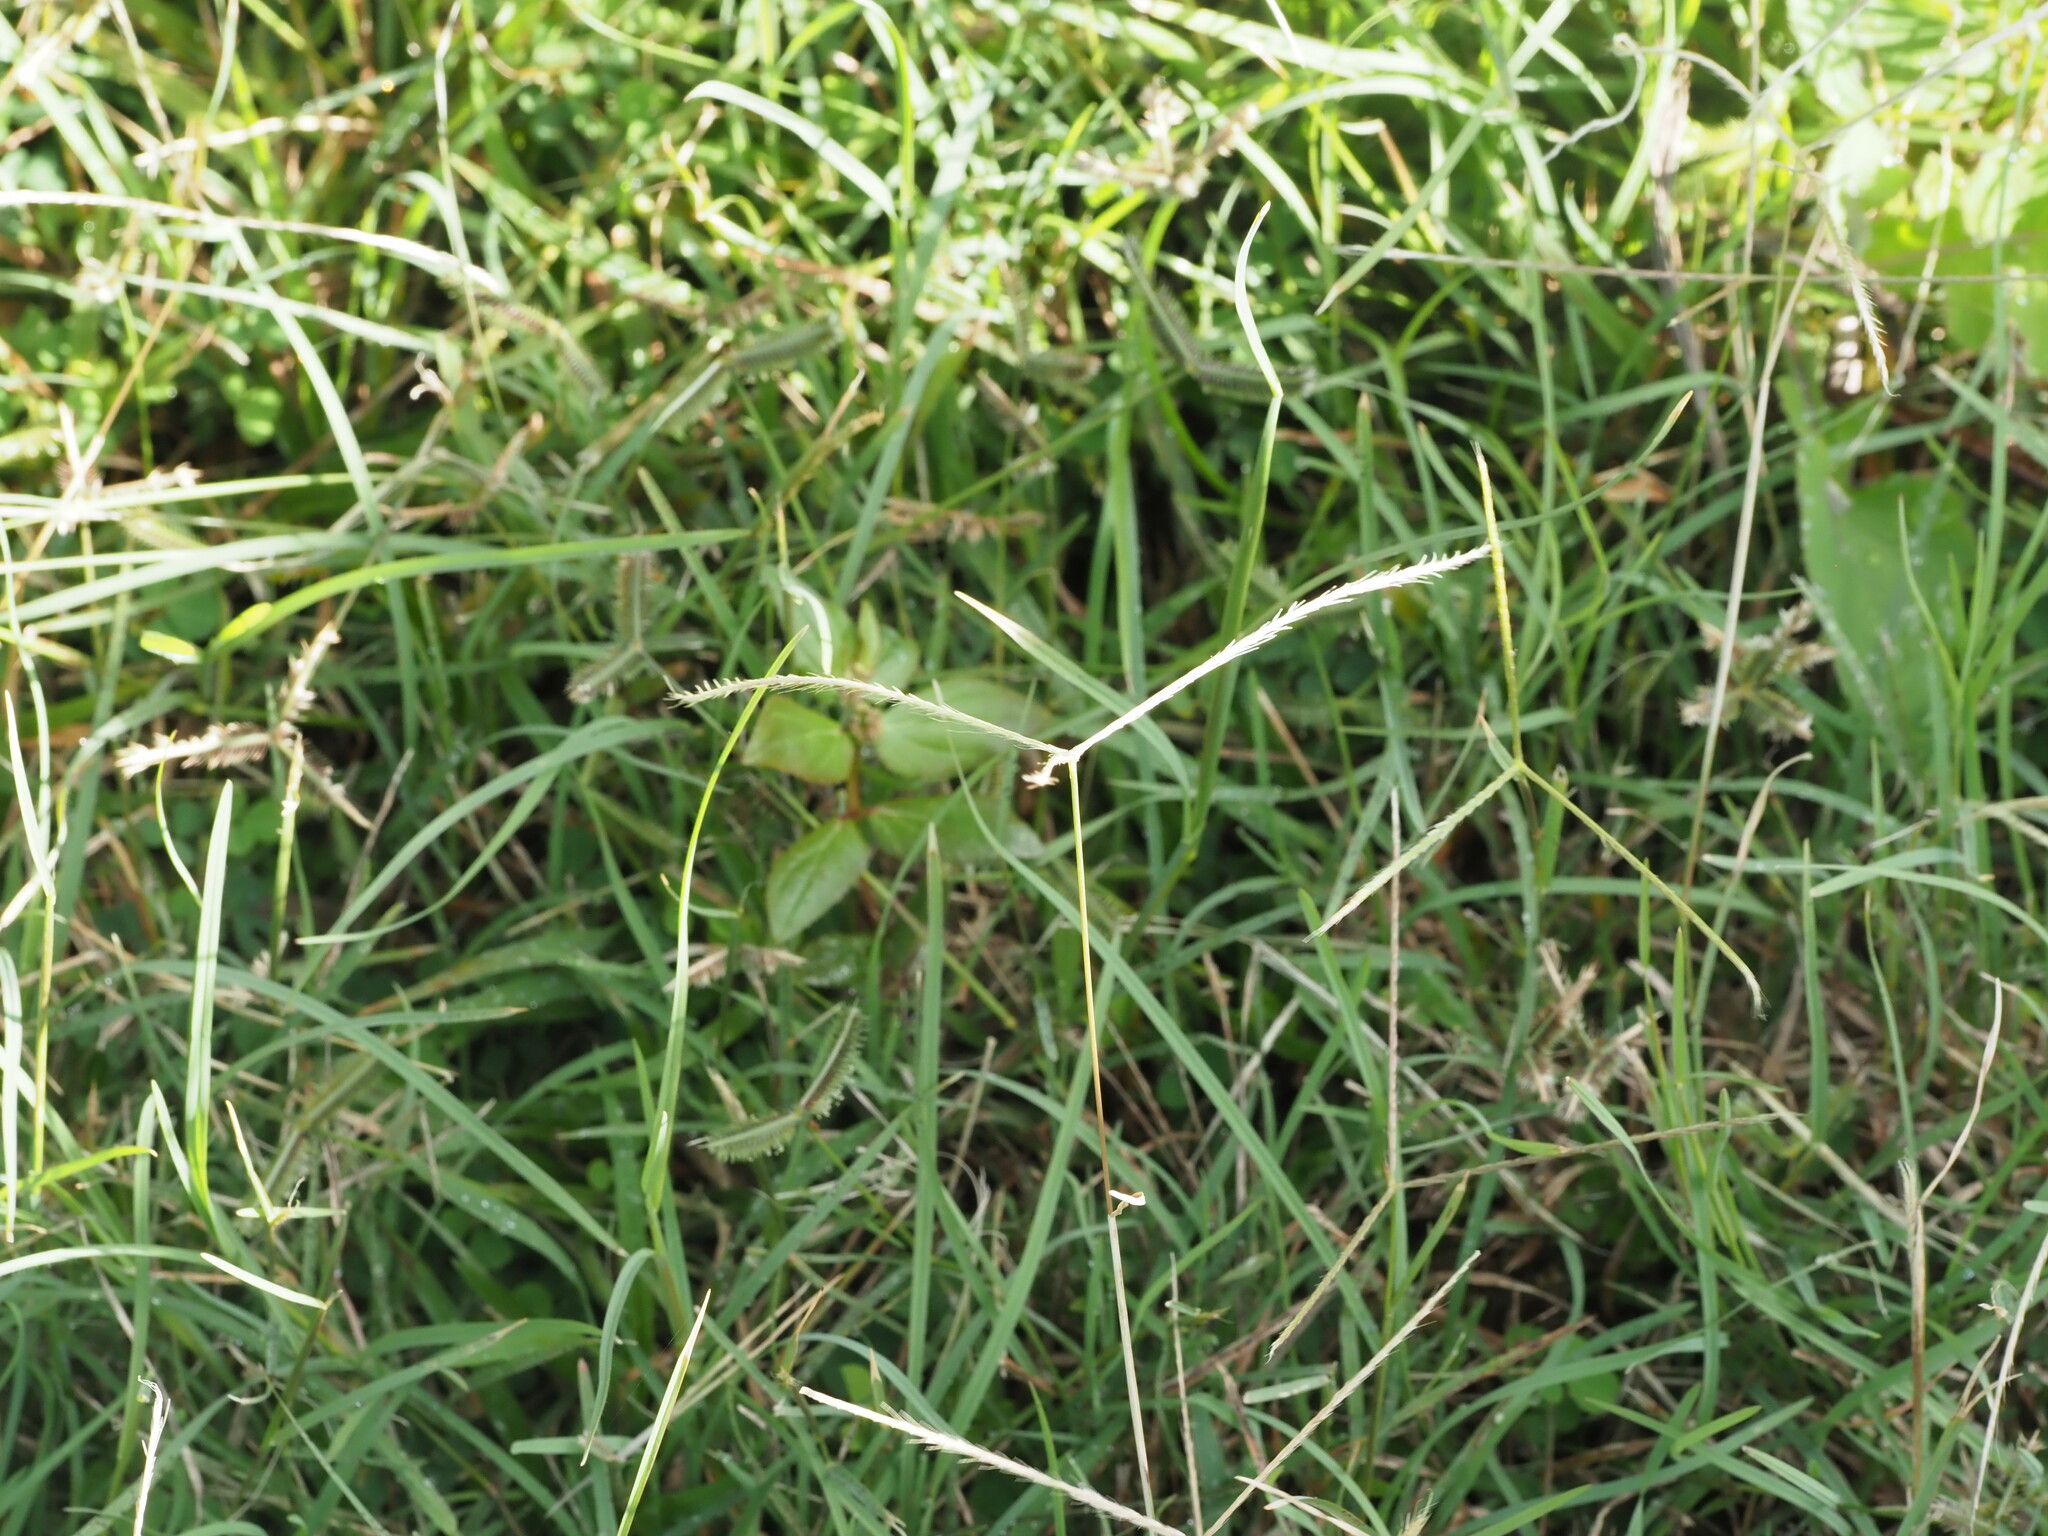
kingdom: Plantae
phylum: Tracheophyta
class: Liliopsida
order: Poales
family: Poaceae
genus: Chloris
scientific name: Chloris
